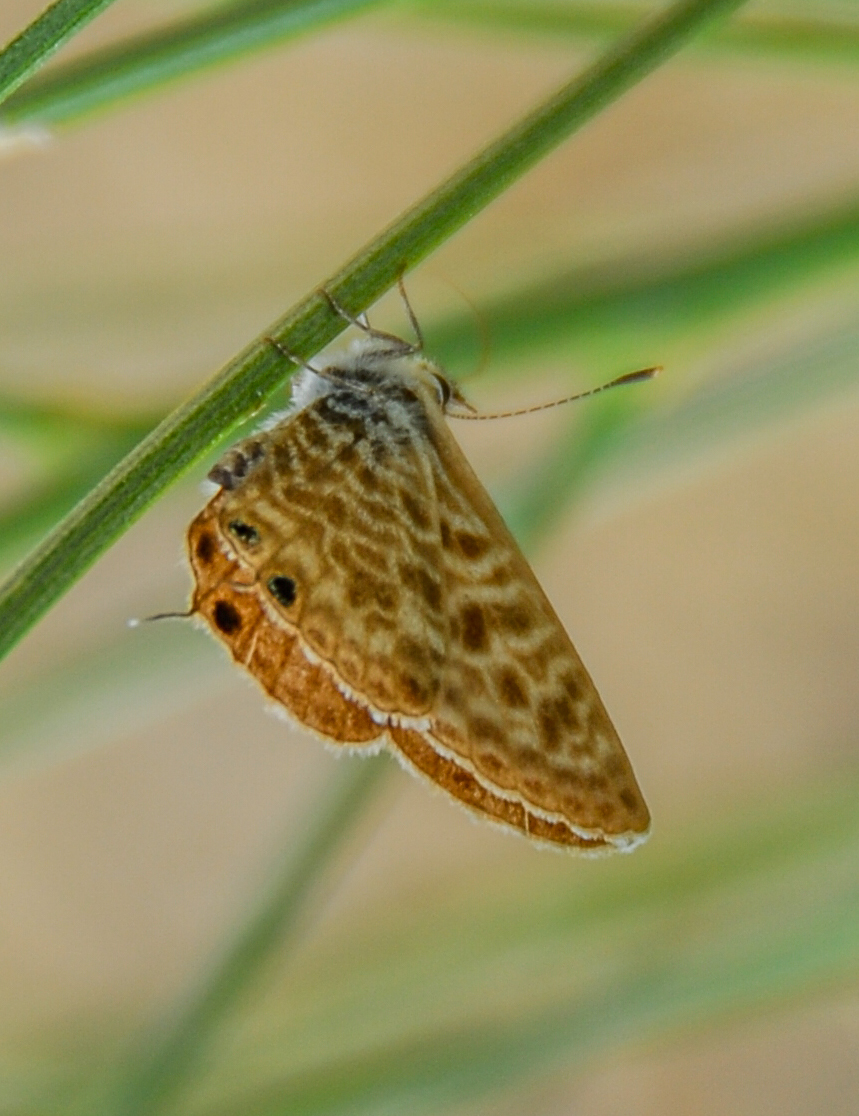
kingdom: Animalia
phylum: Arthropoda
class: Insecta
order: Lepidoptera
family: Lycaenidae
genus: Leptotes
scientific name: Leptotes pirithous
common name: Lang's short-tailed blue
